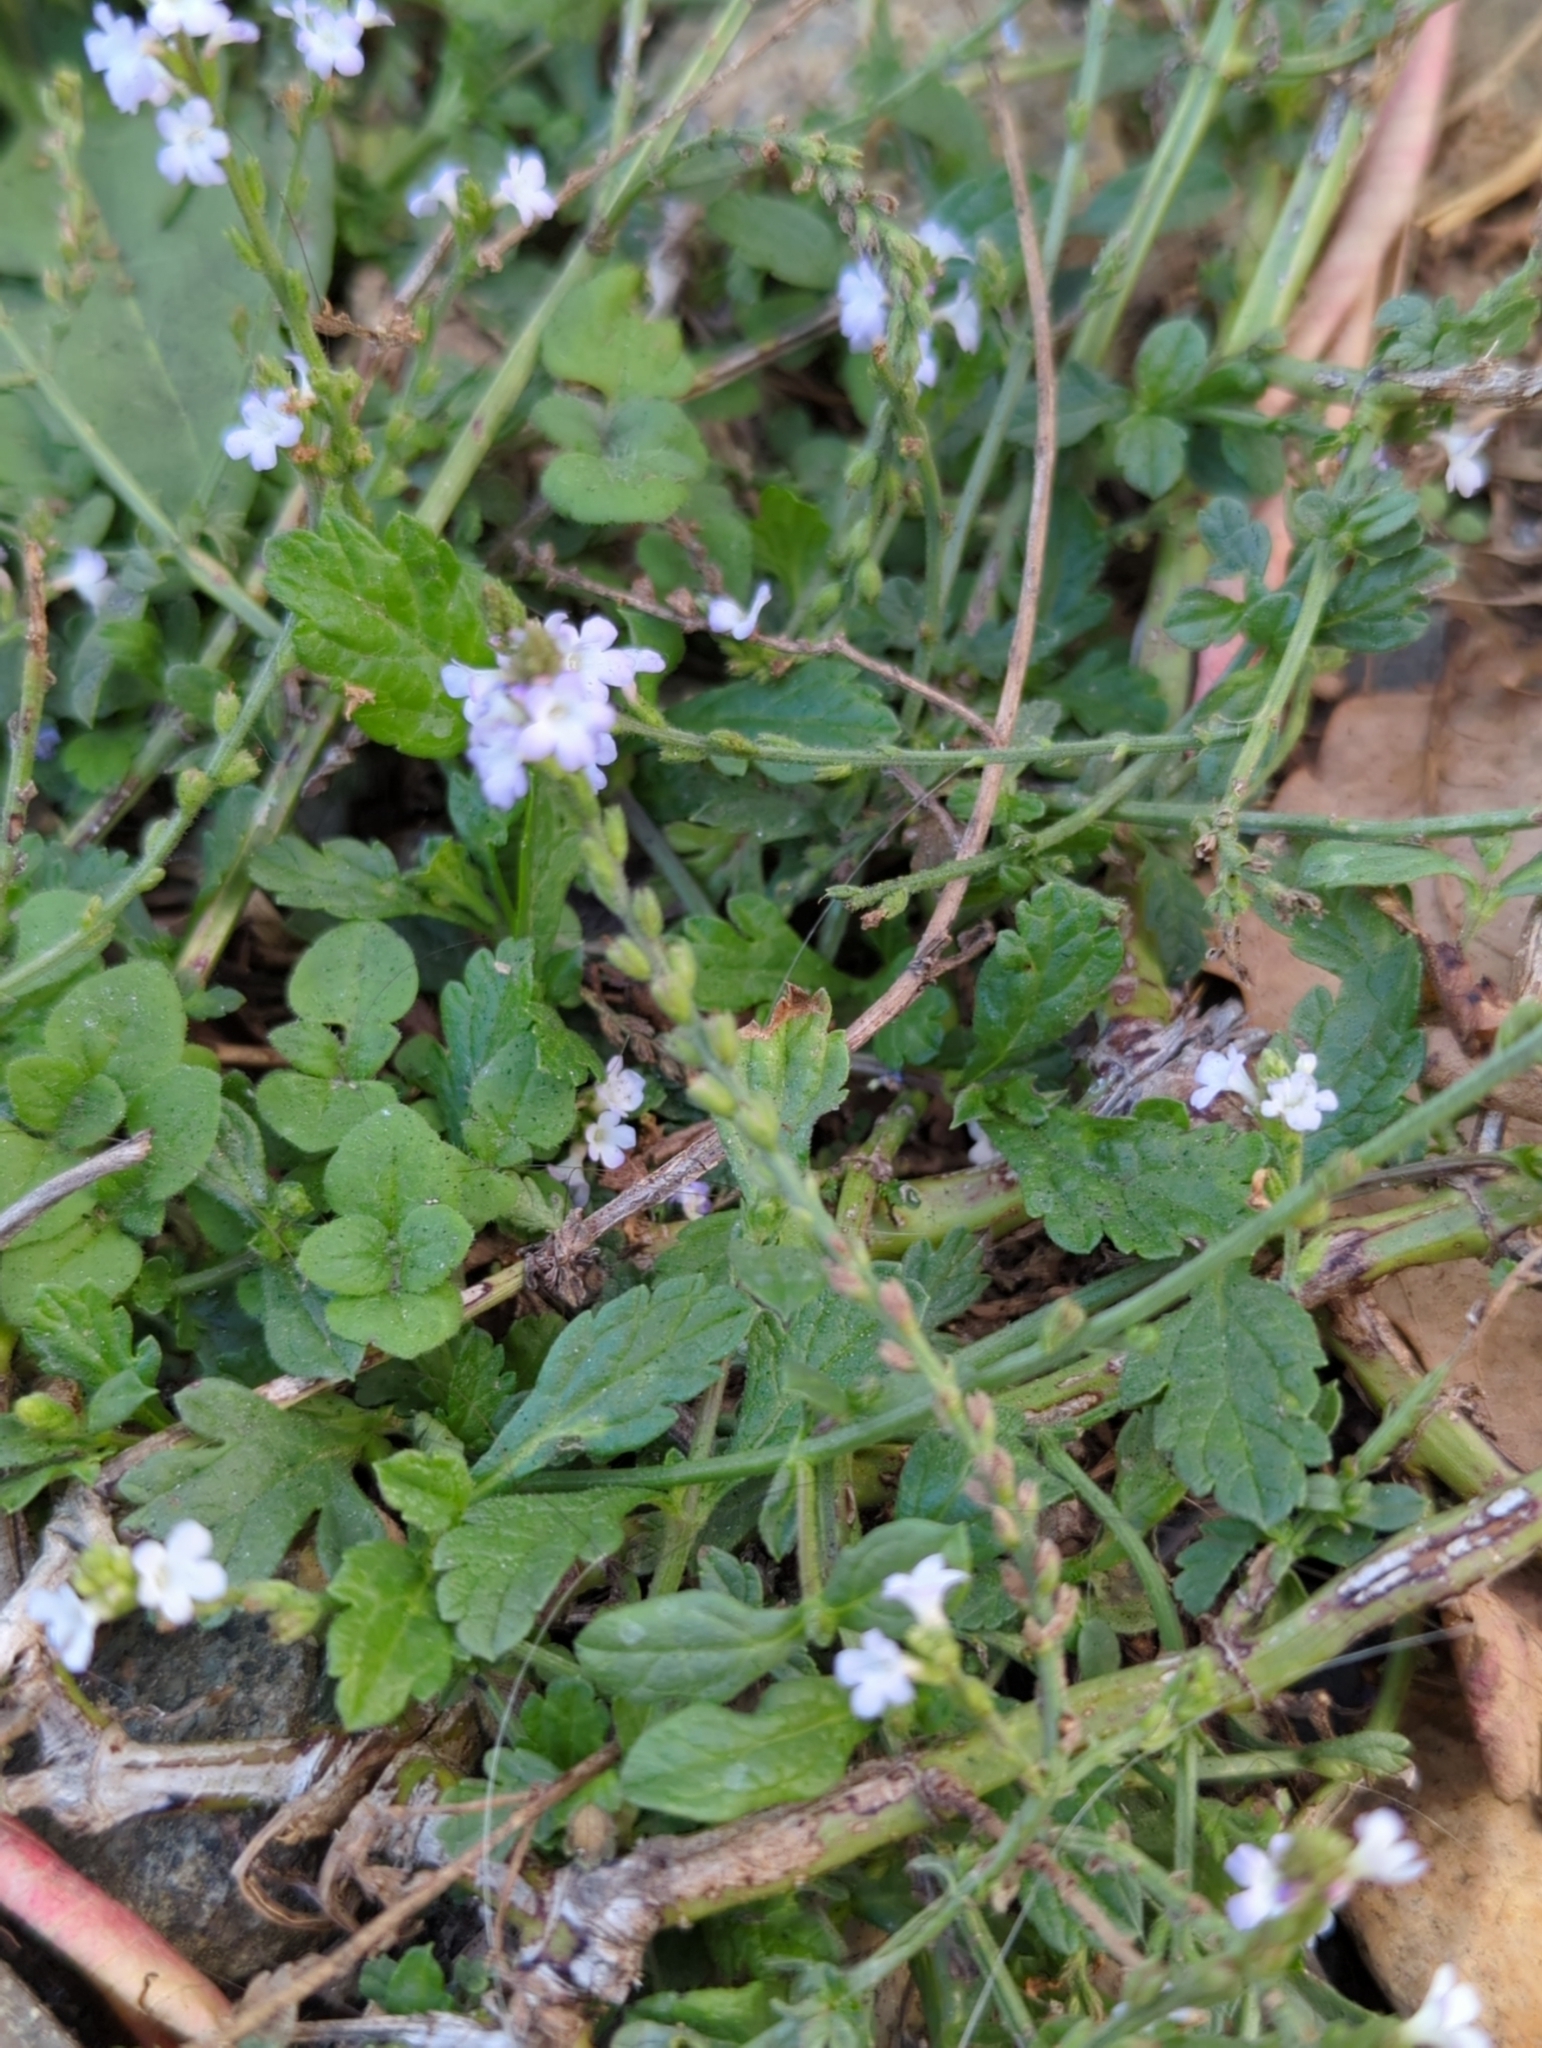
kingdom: Plantae
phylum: Tracheophyta
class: Magnoliopsida
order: Lamiales
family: Verbenaceae
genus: Verbena
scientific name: Verbena officinalis
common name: Vervain
